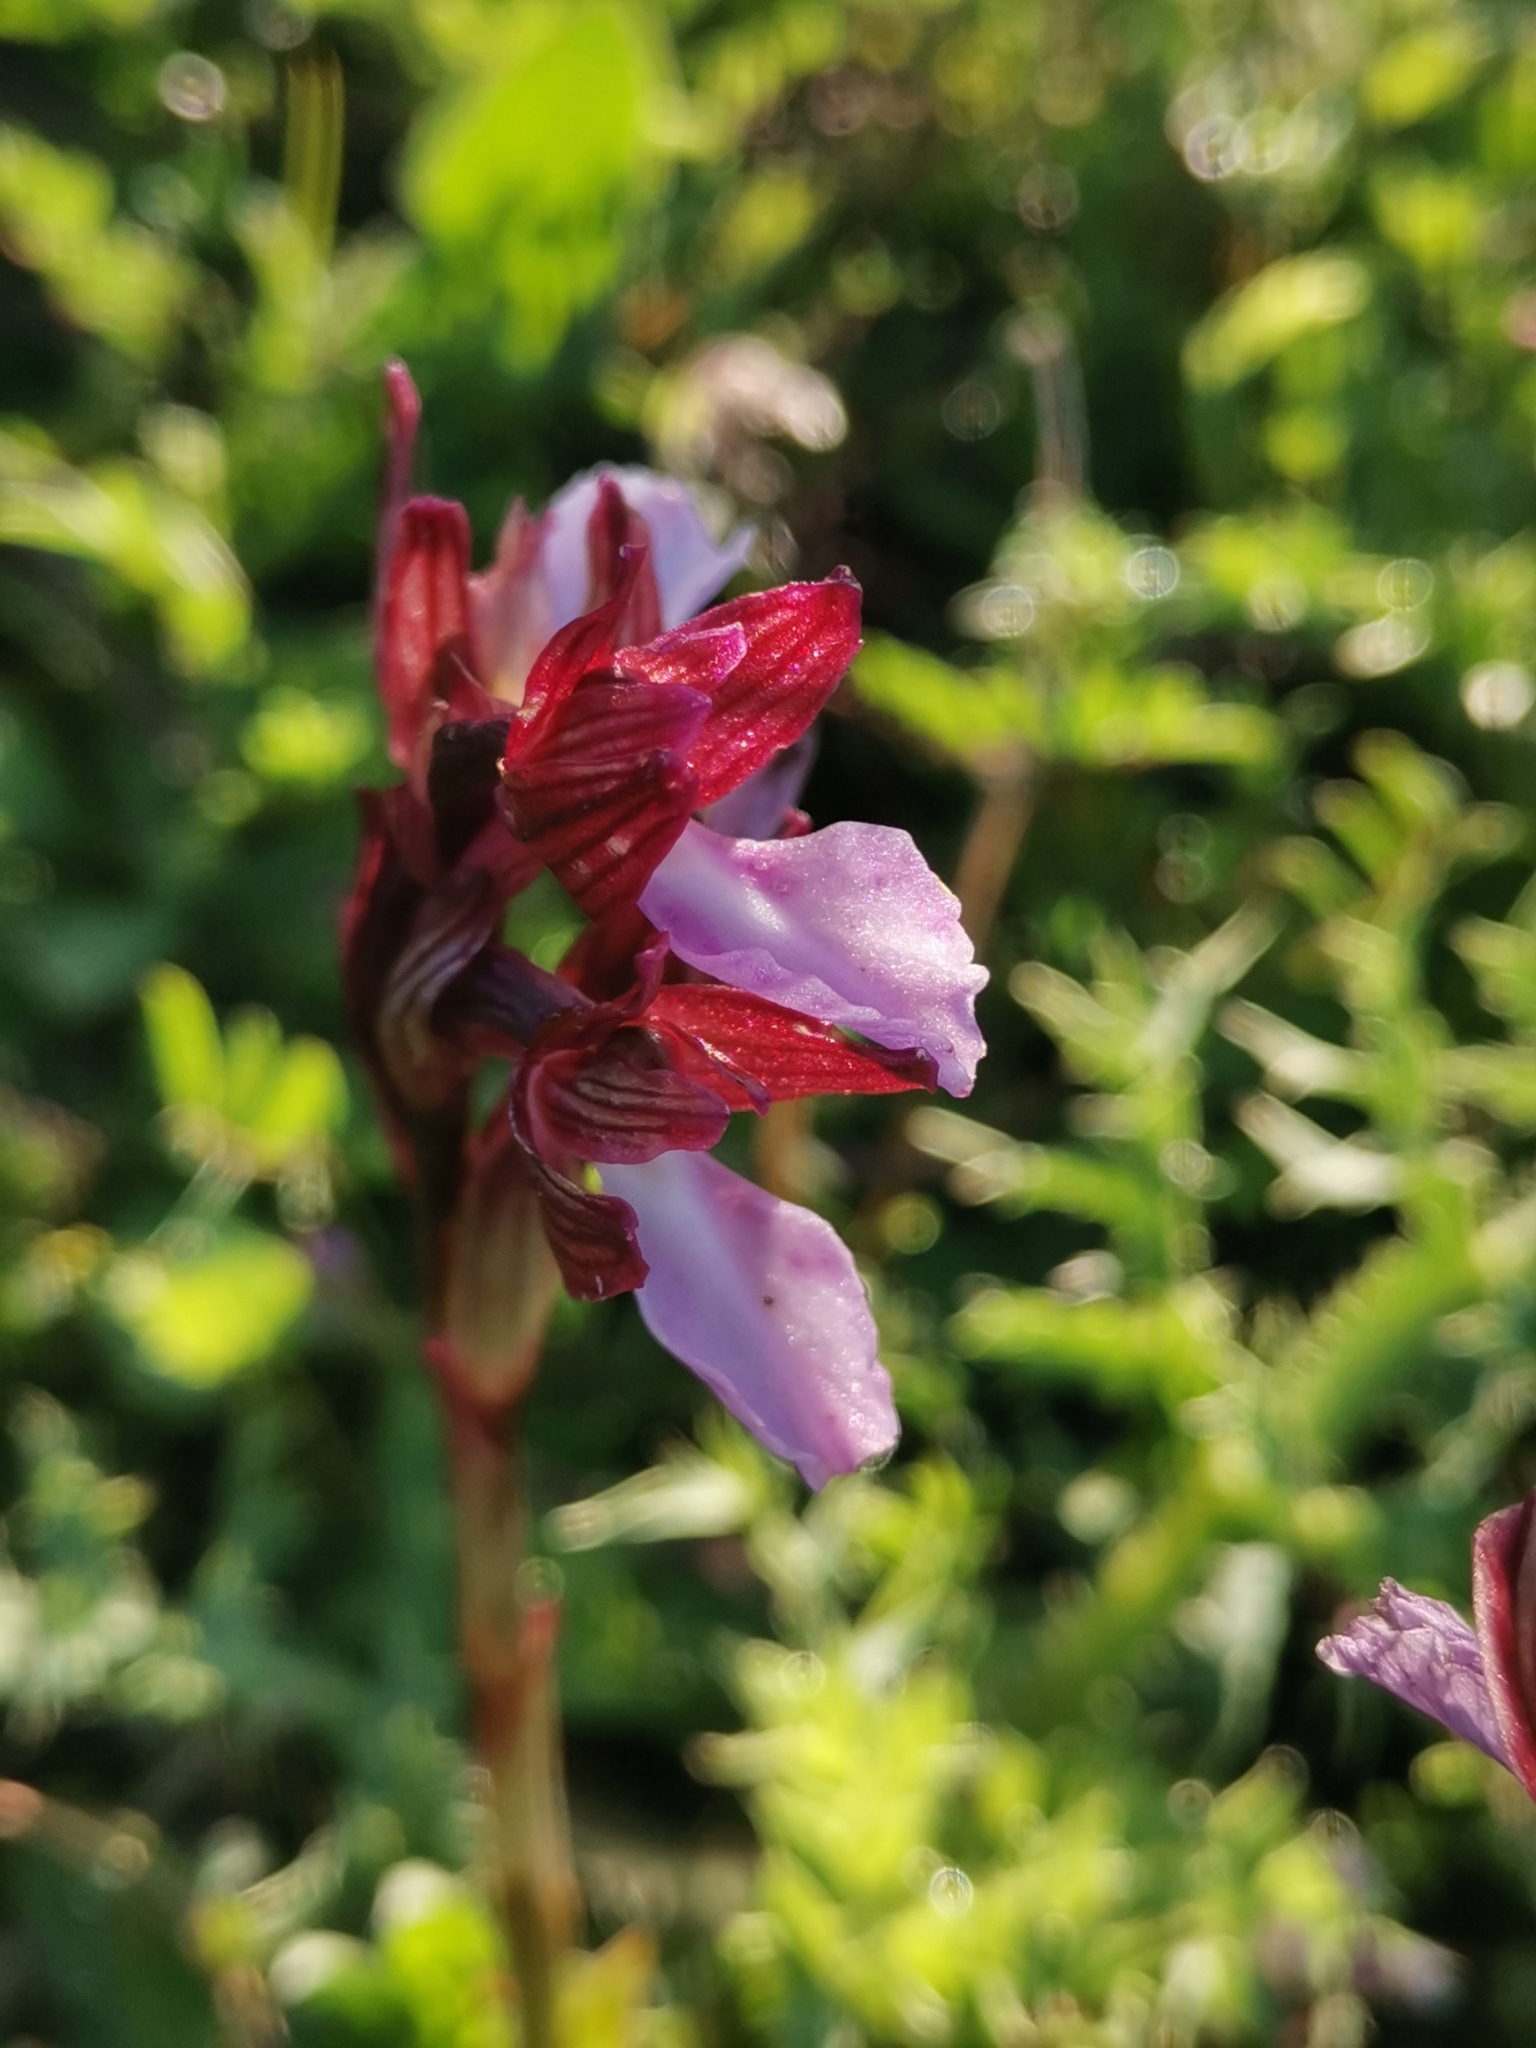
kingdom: Plantae
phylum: Tracheophyta
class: Liliopsida
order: Asparagales
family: Orchidaceae
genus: Anacamptis
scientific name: Anacamptis papilionacea
